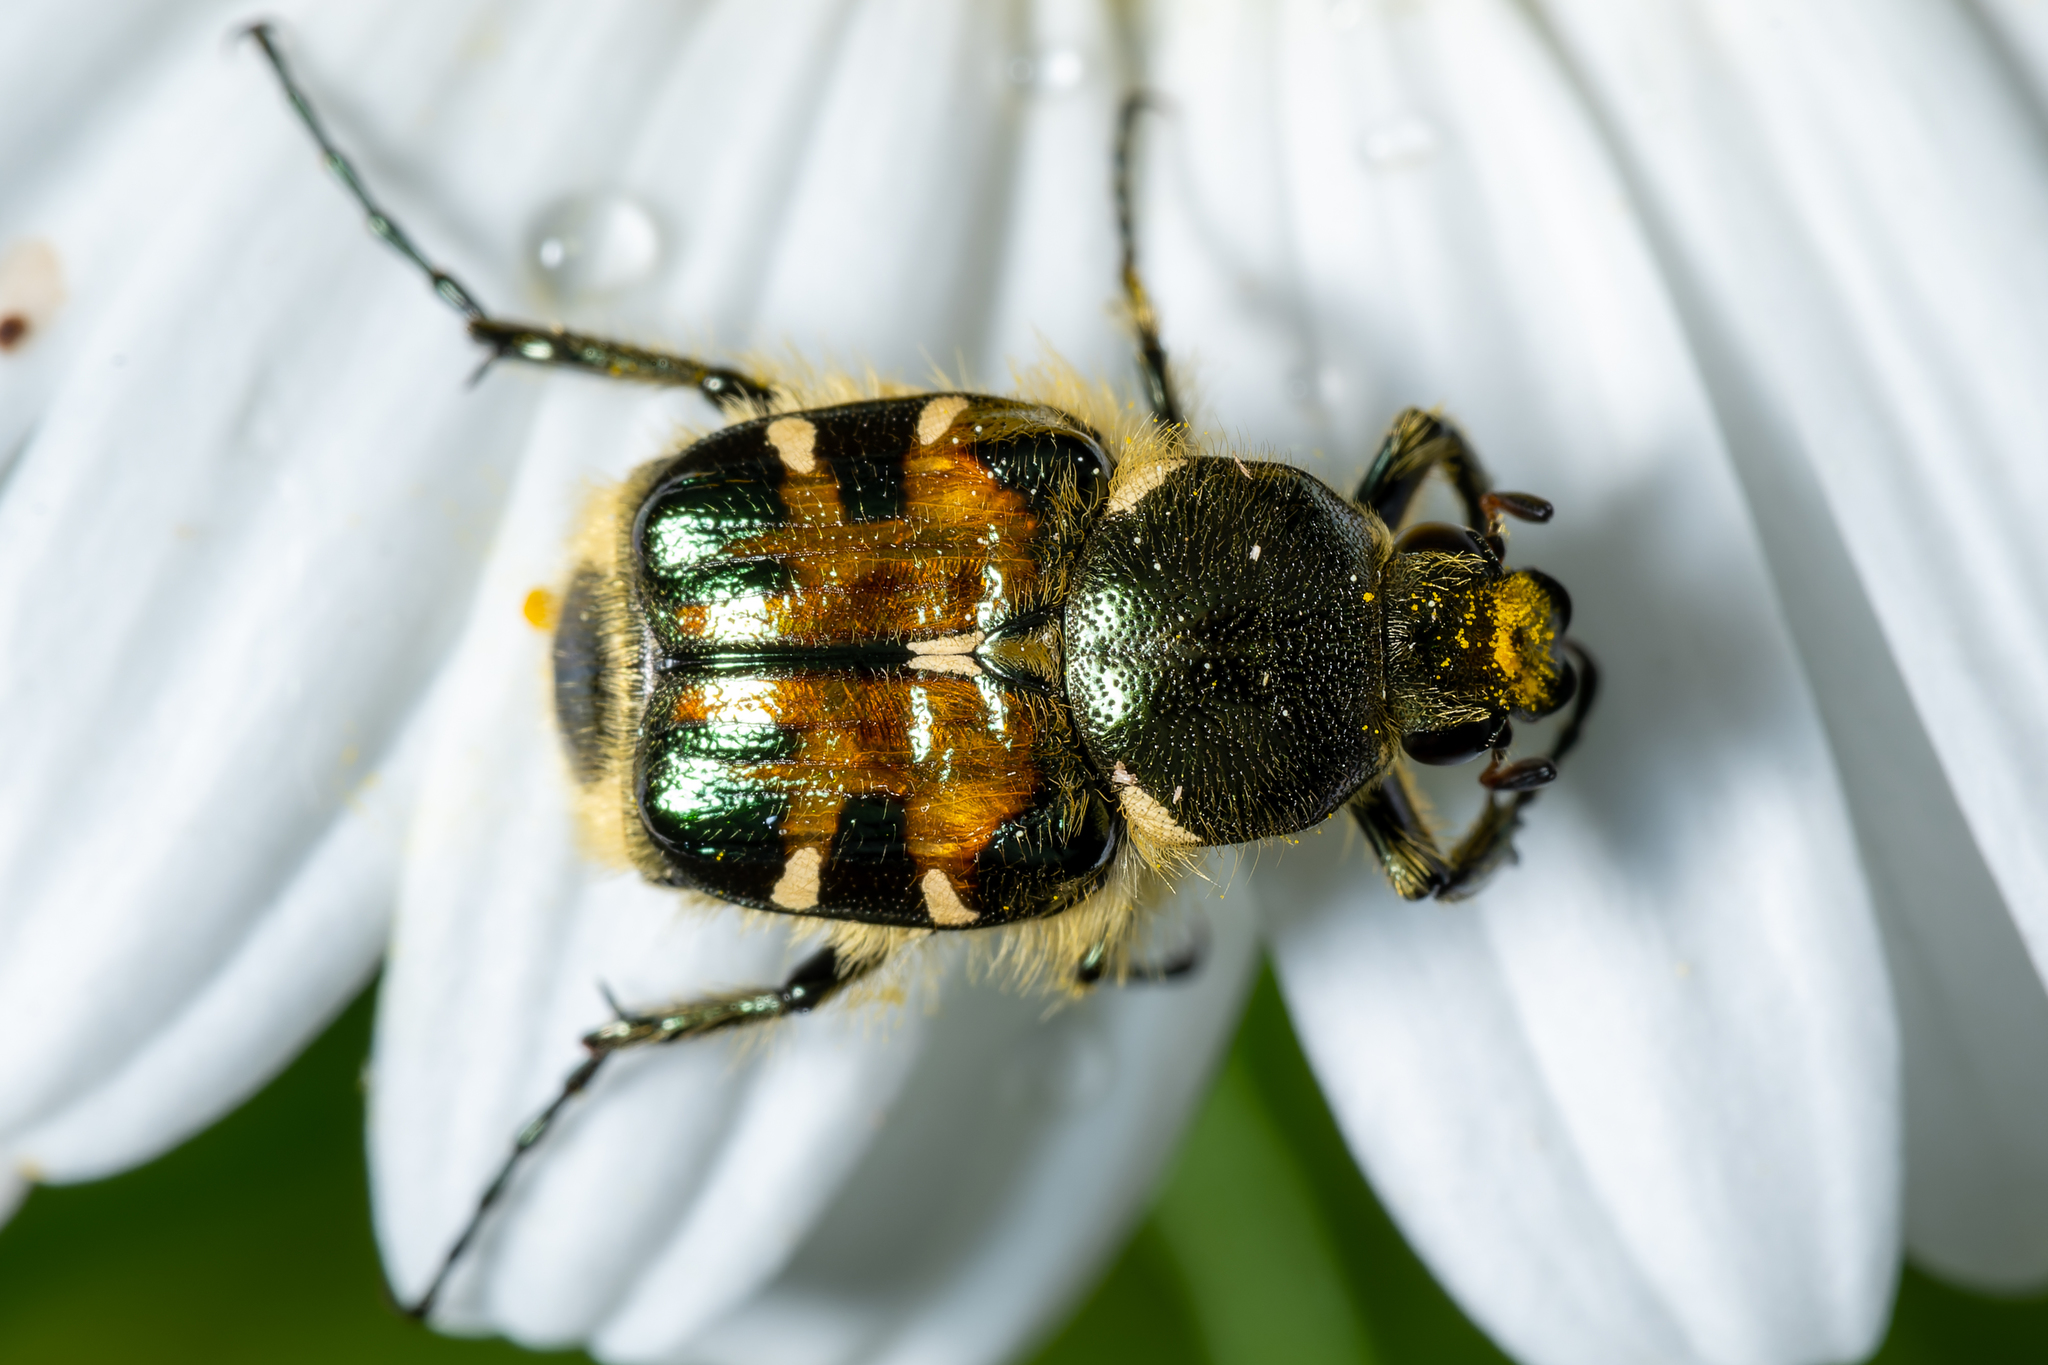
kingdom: Animalia
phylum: Arthropoda
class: Insecta
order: Coleoptera
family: Scarabaeidae
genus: Trichiotinus
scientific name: Trichiotinus viridans
